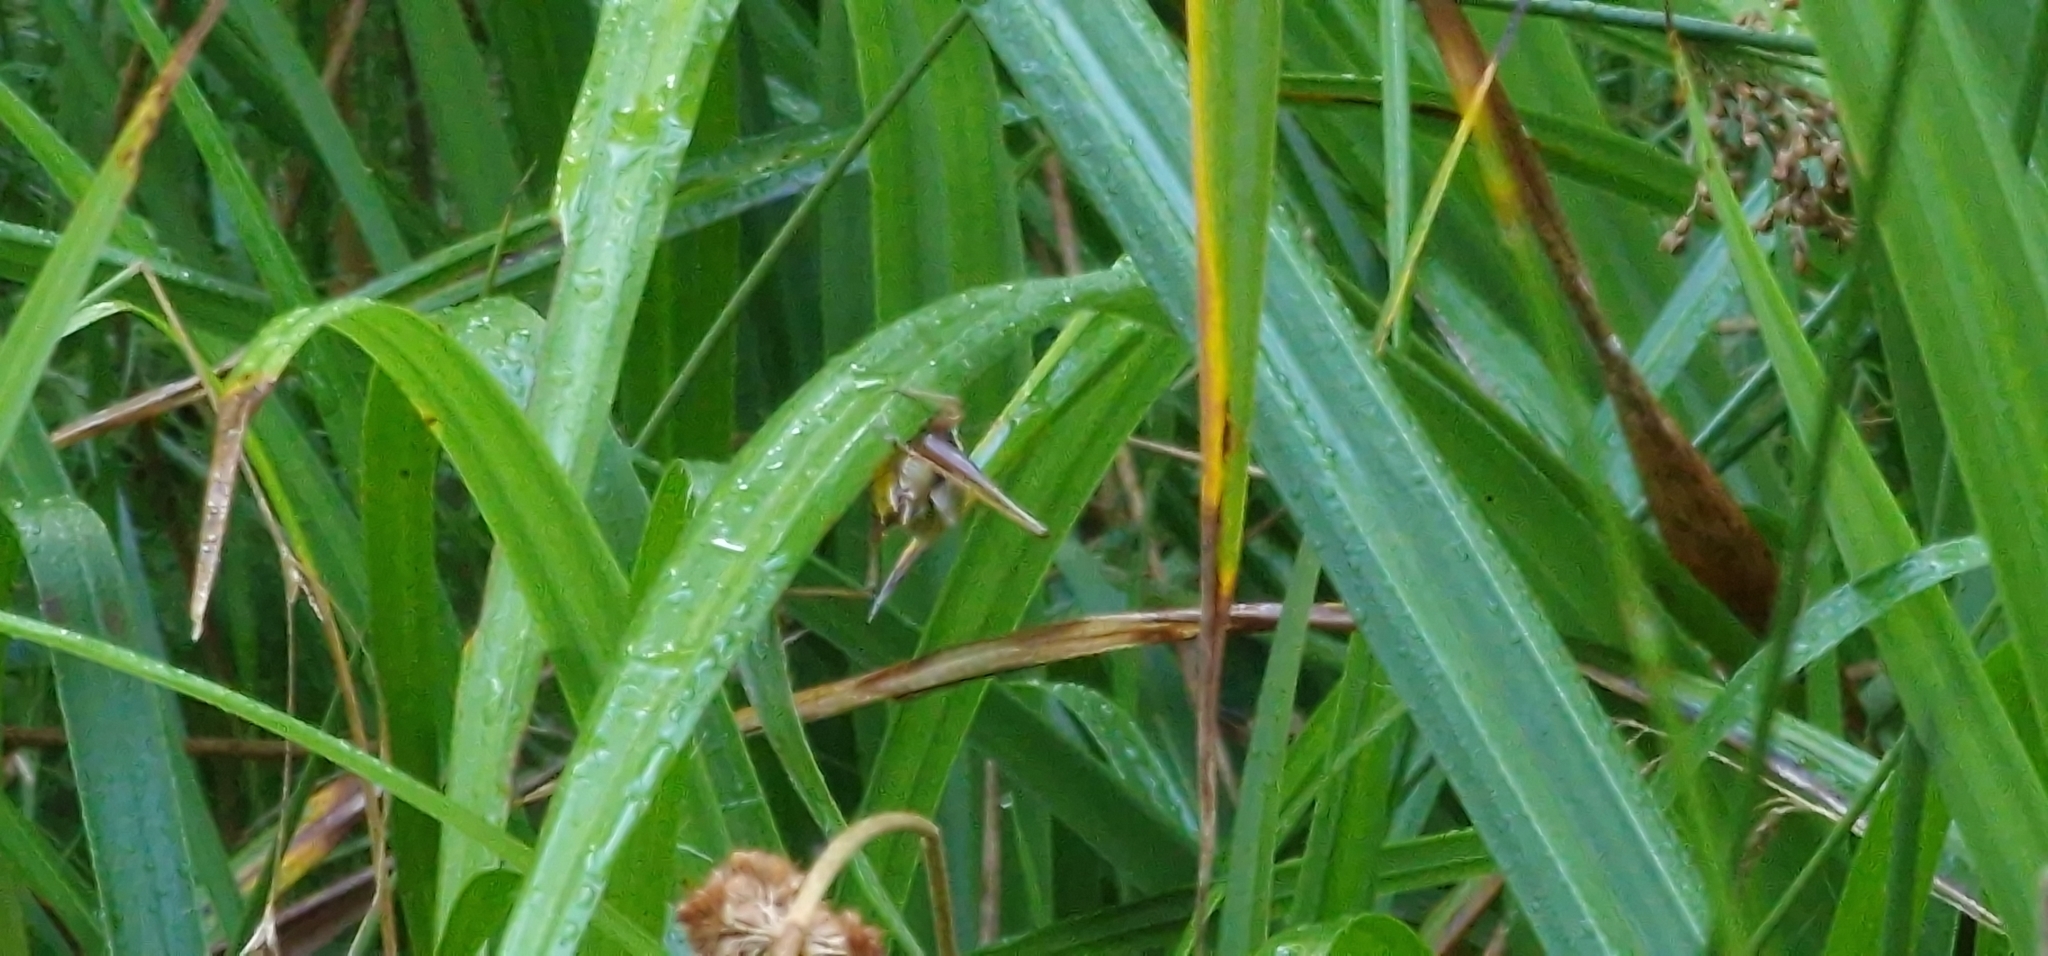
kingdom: Animalia
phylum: Arthropoda
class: Insecta
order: Orthoptera
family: Tettigoniidae
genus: Roeseliana
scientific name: Roeseliana roeselii
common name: Roesel's bush cricket
